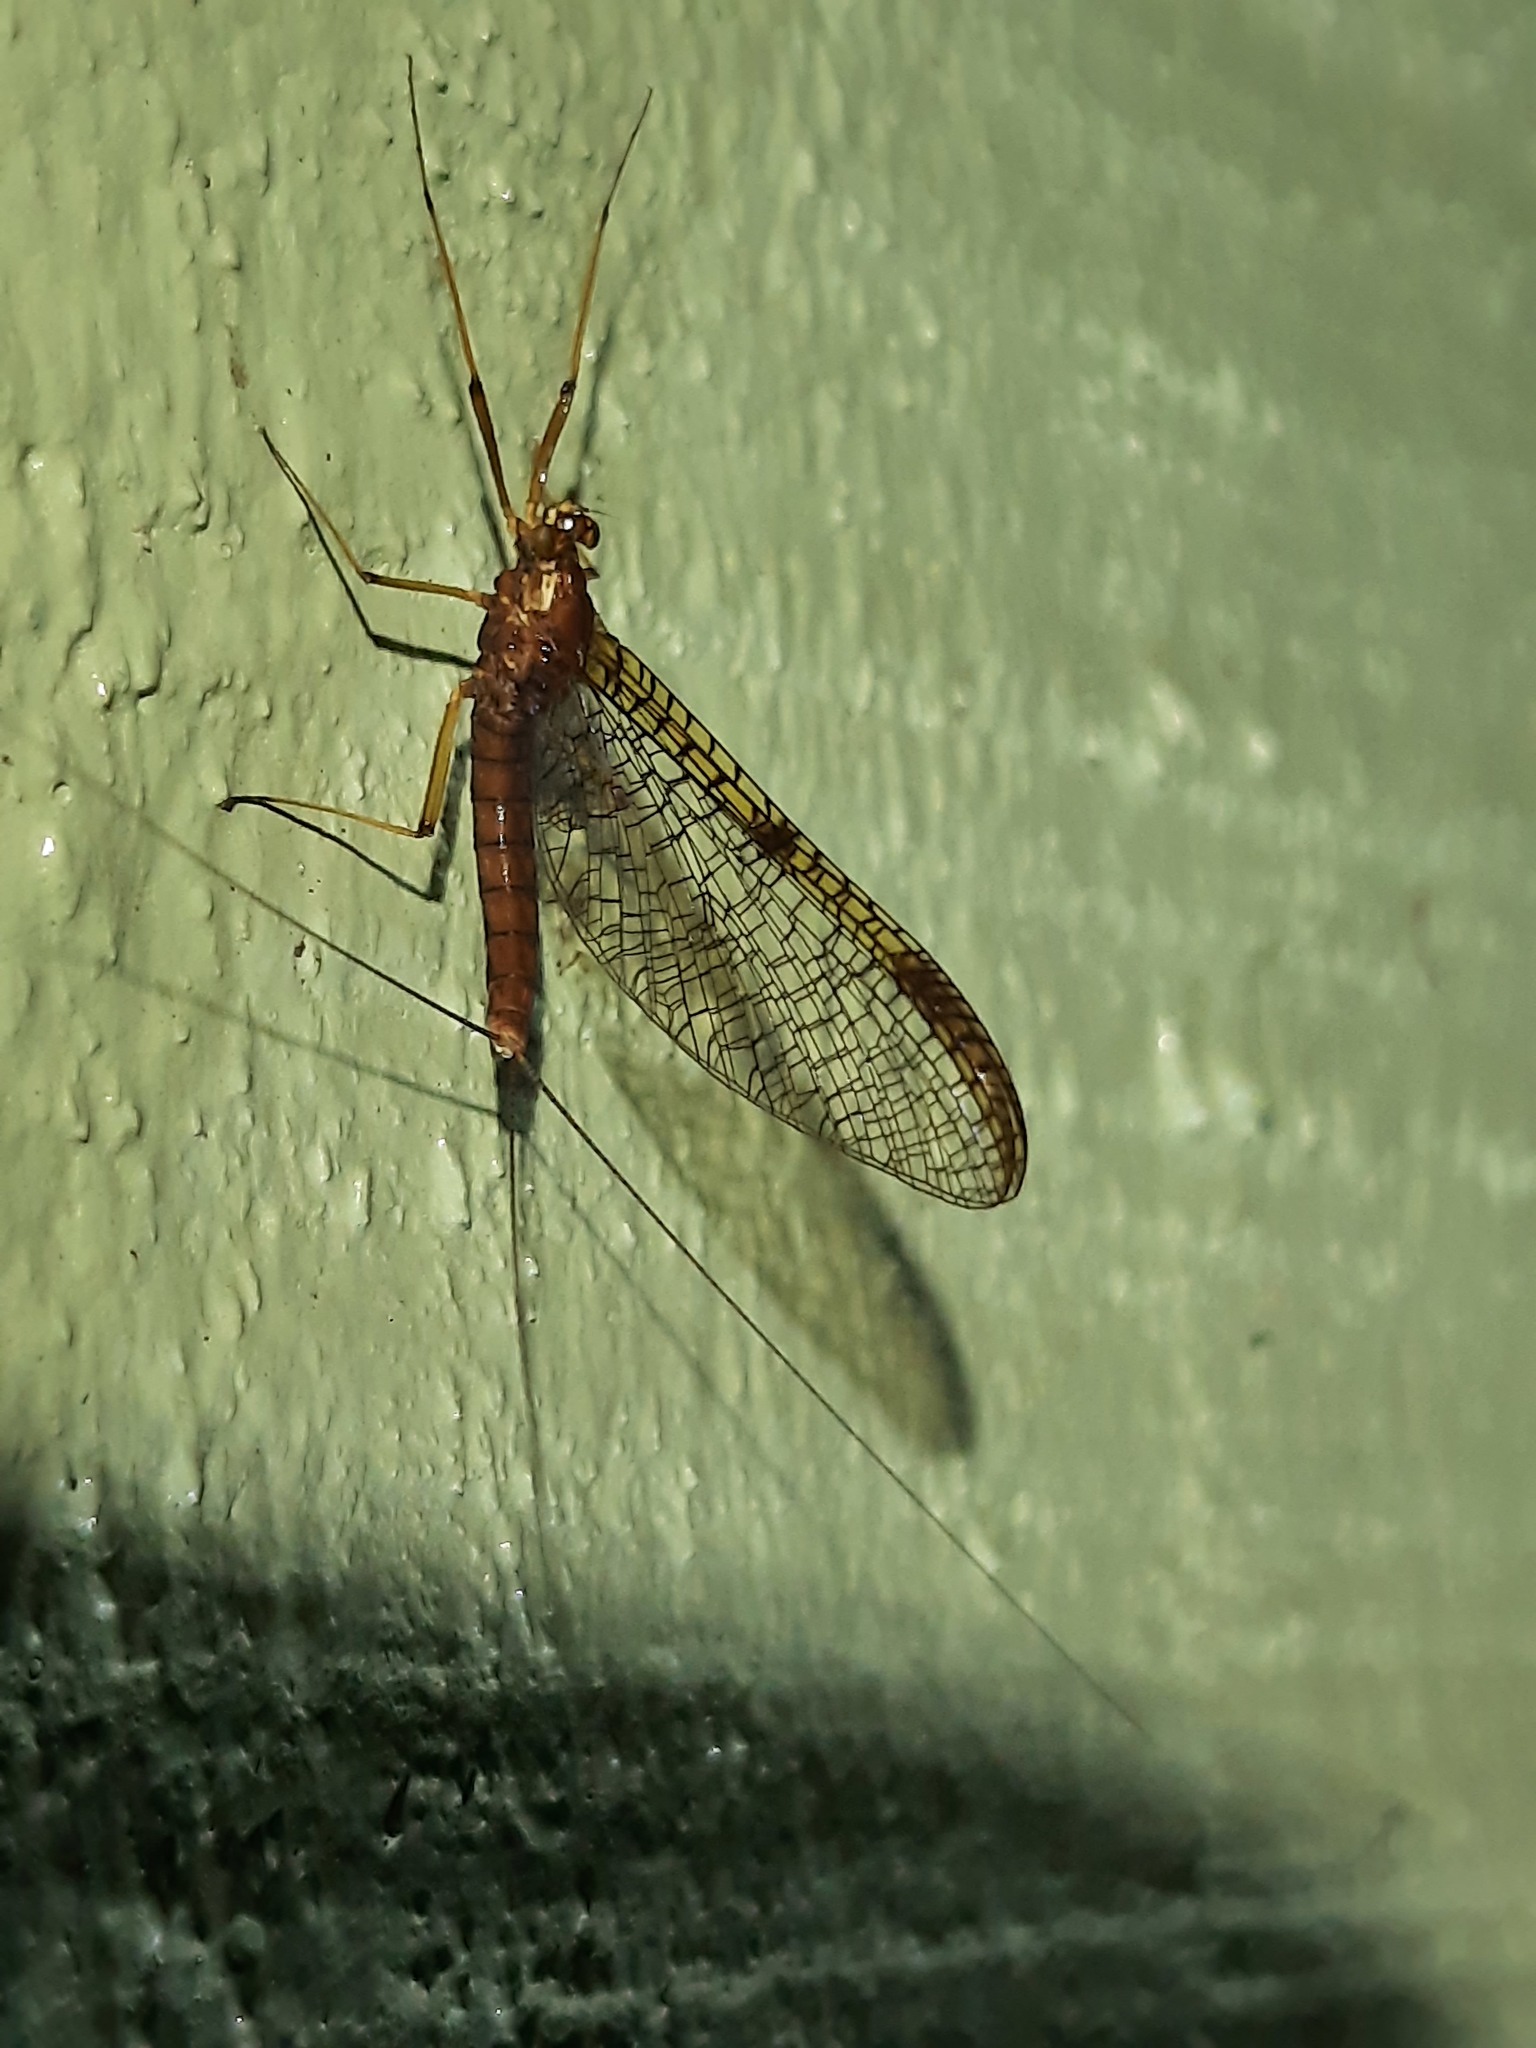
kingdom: Animalia
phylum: Arthropoda
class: Insecta
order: Ephemeroptera
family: Leptophlebiidae
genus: Zephlebia
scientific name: Zephlebia dentata
